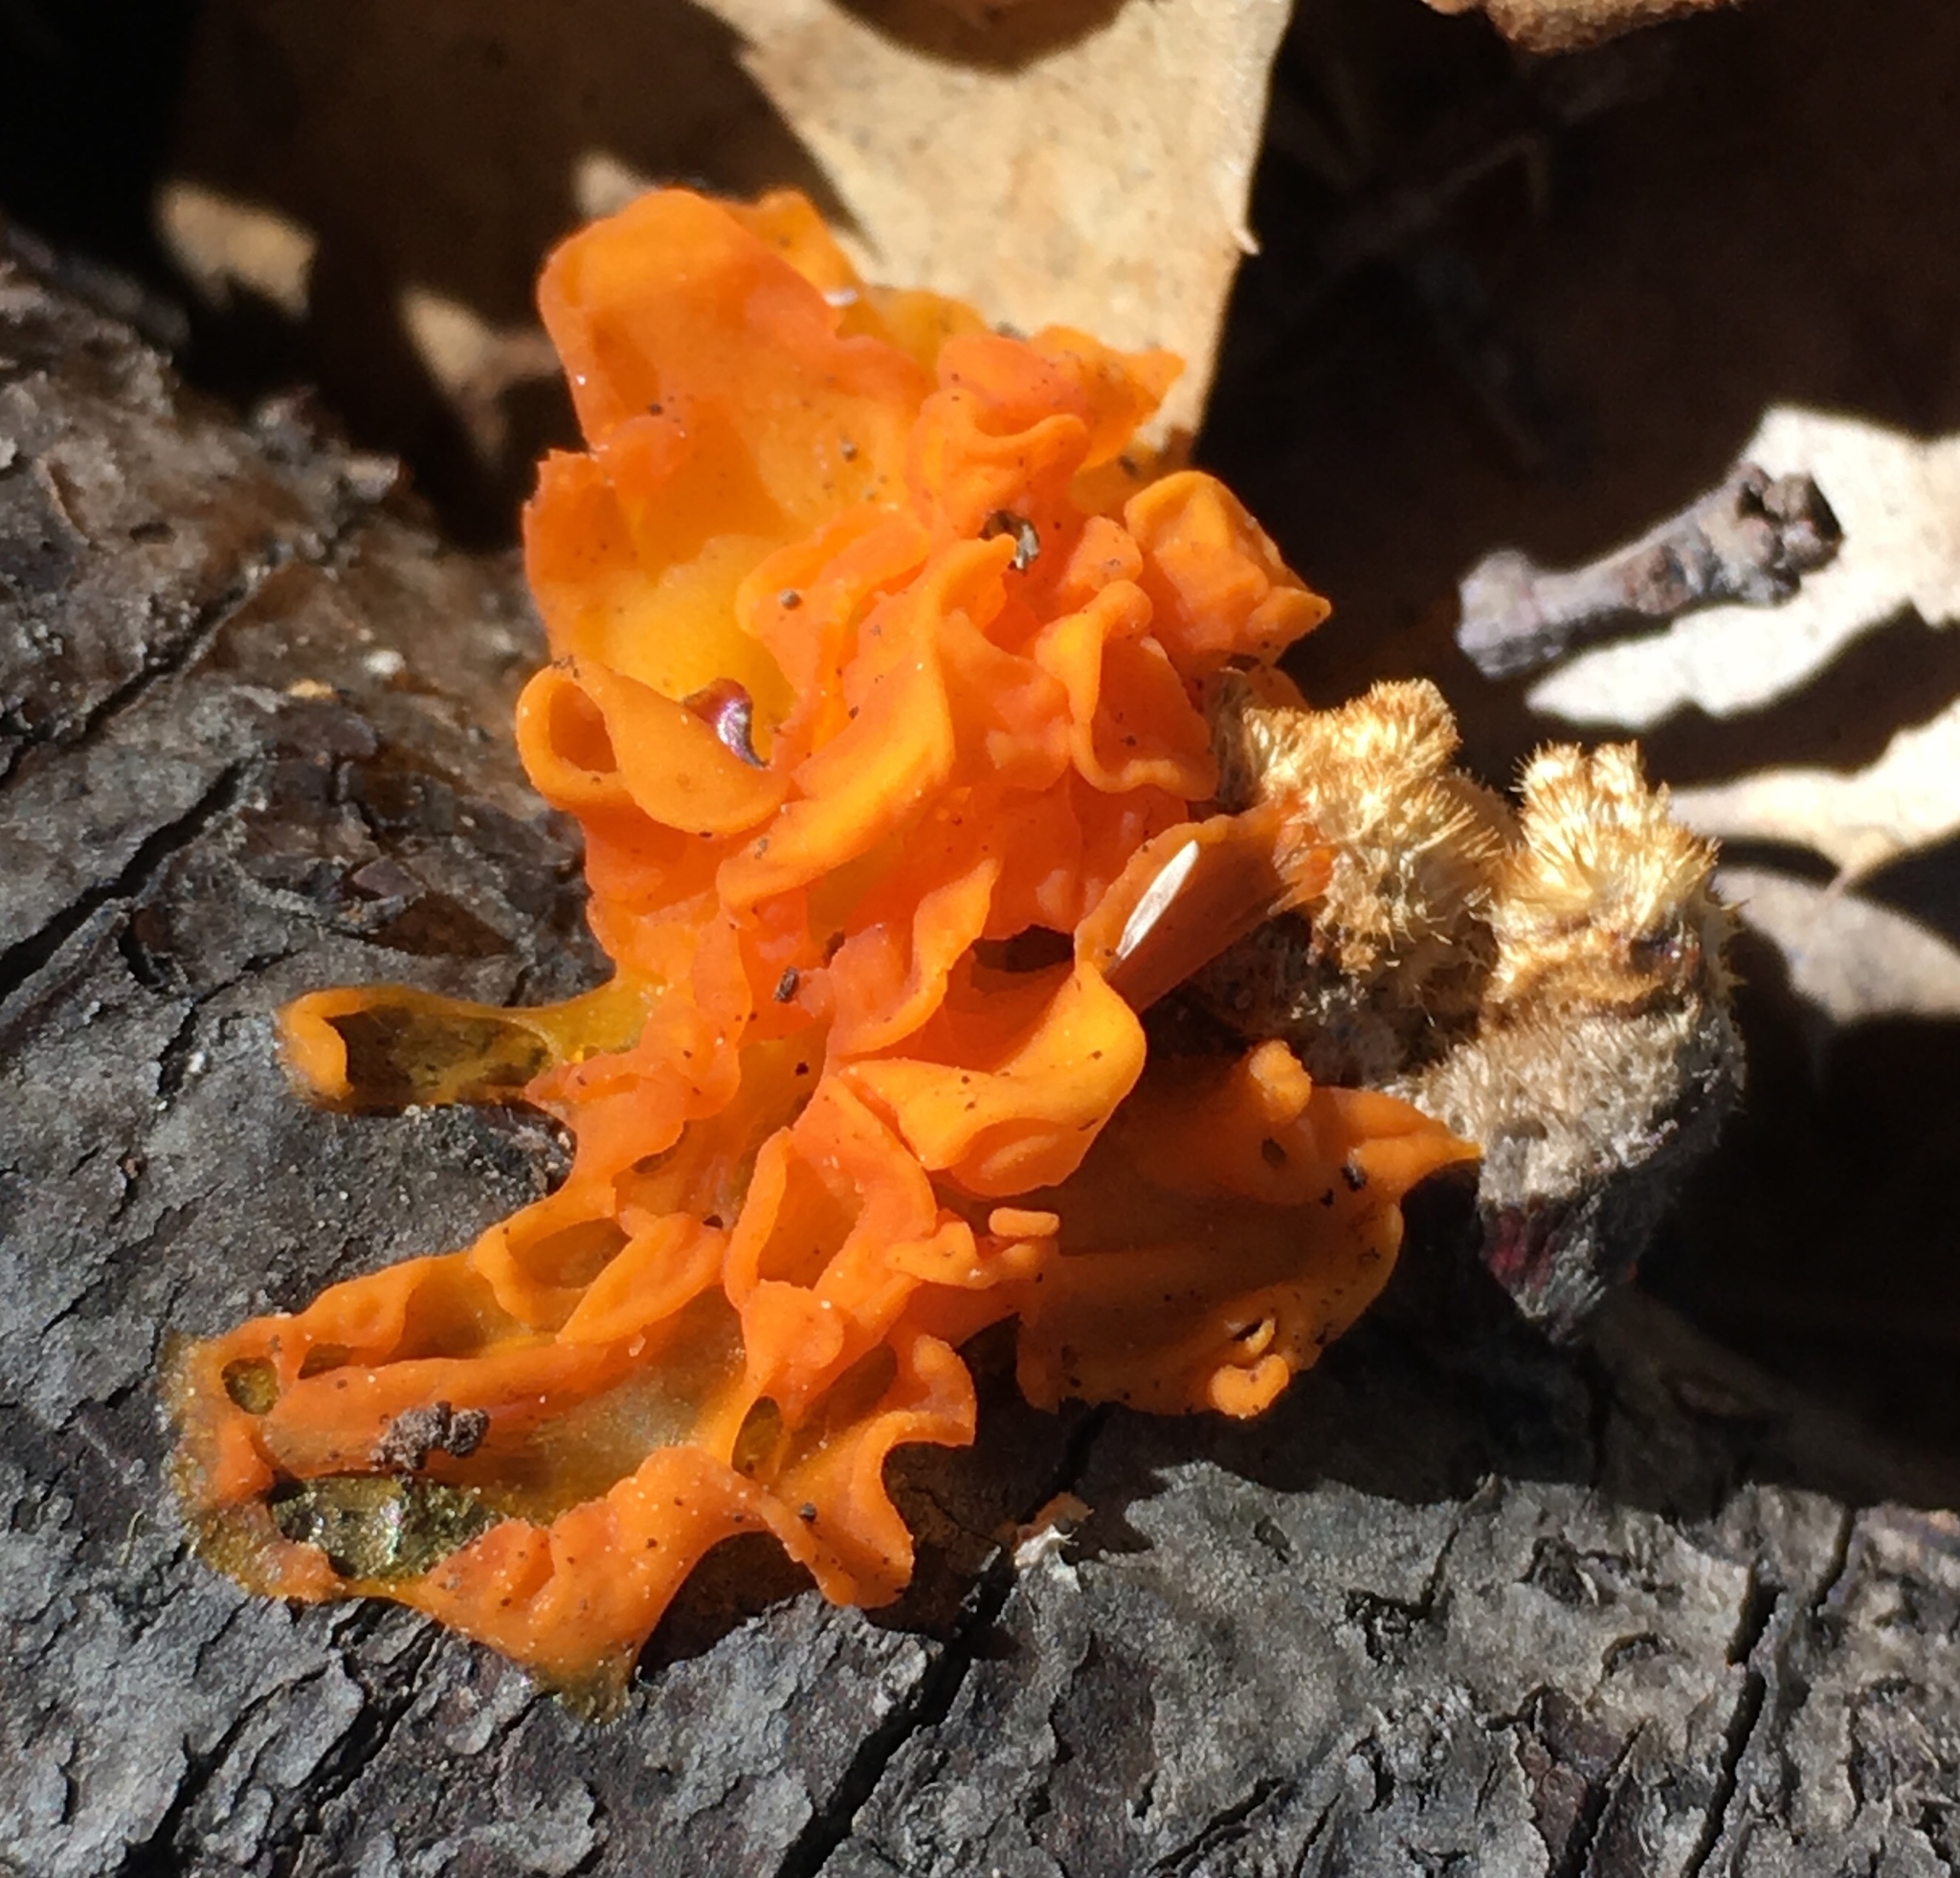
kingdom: Fungi
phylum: Basidiomycota
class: Tremellomycetes
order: Tremellales
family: Naemateliaceae
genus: Naematelia
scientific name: Naematelia aurantia
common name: Golden ear
